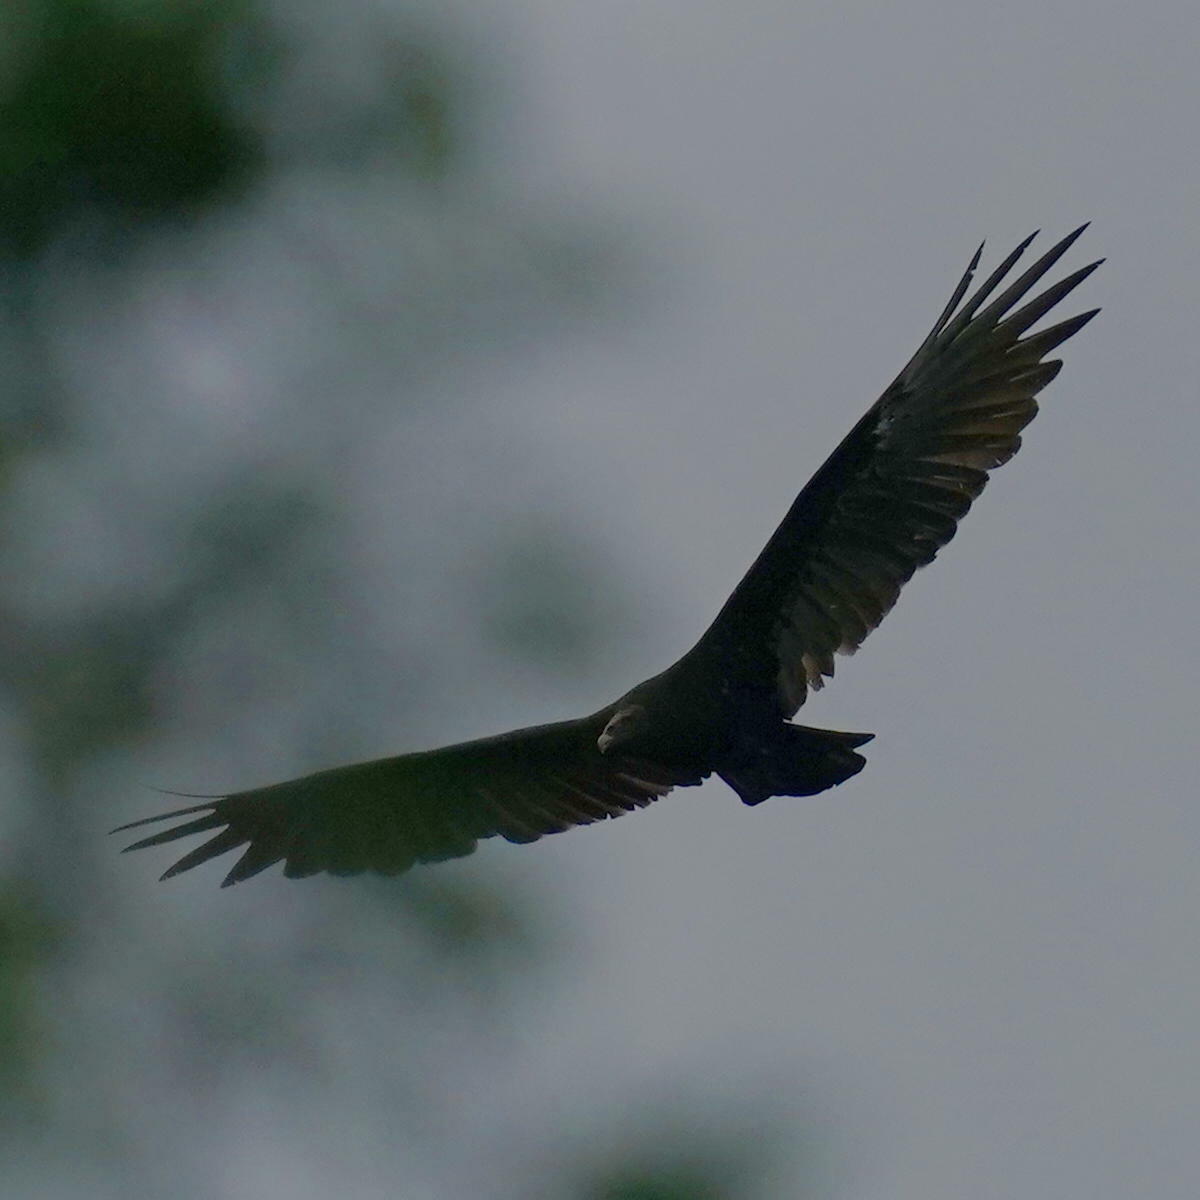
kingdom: Animalia
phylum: Chordata
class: Aves
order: Accipitriformes
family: Cathartidae
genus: Cathartes
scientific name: Cathartes aura
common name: Turkey vulture
